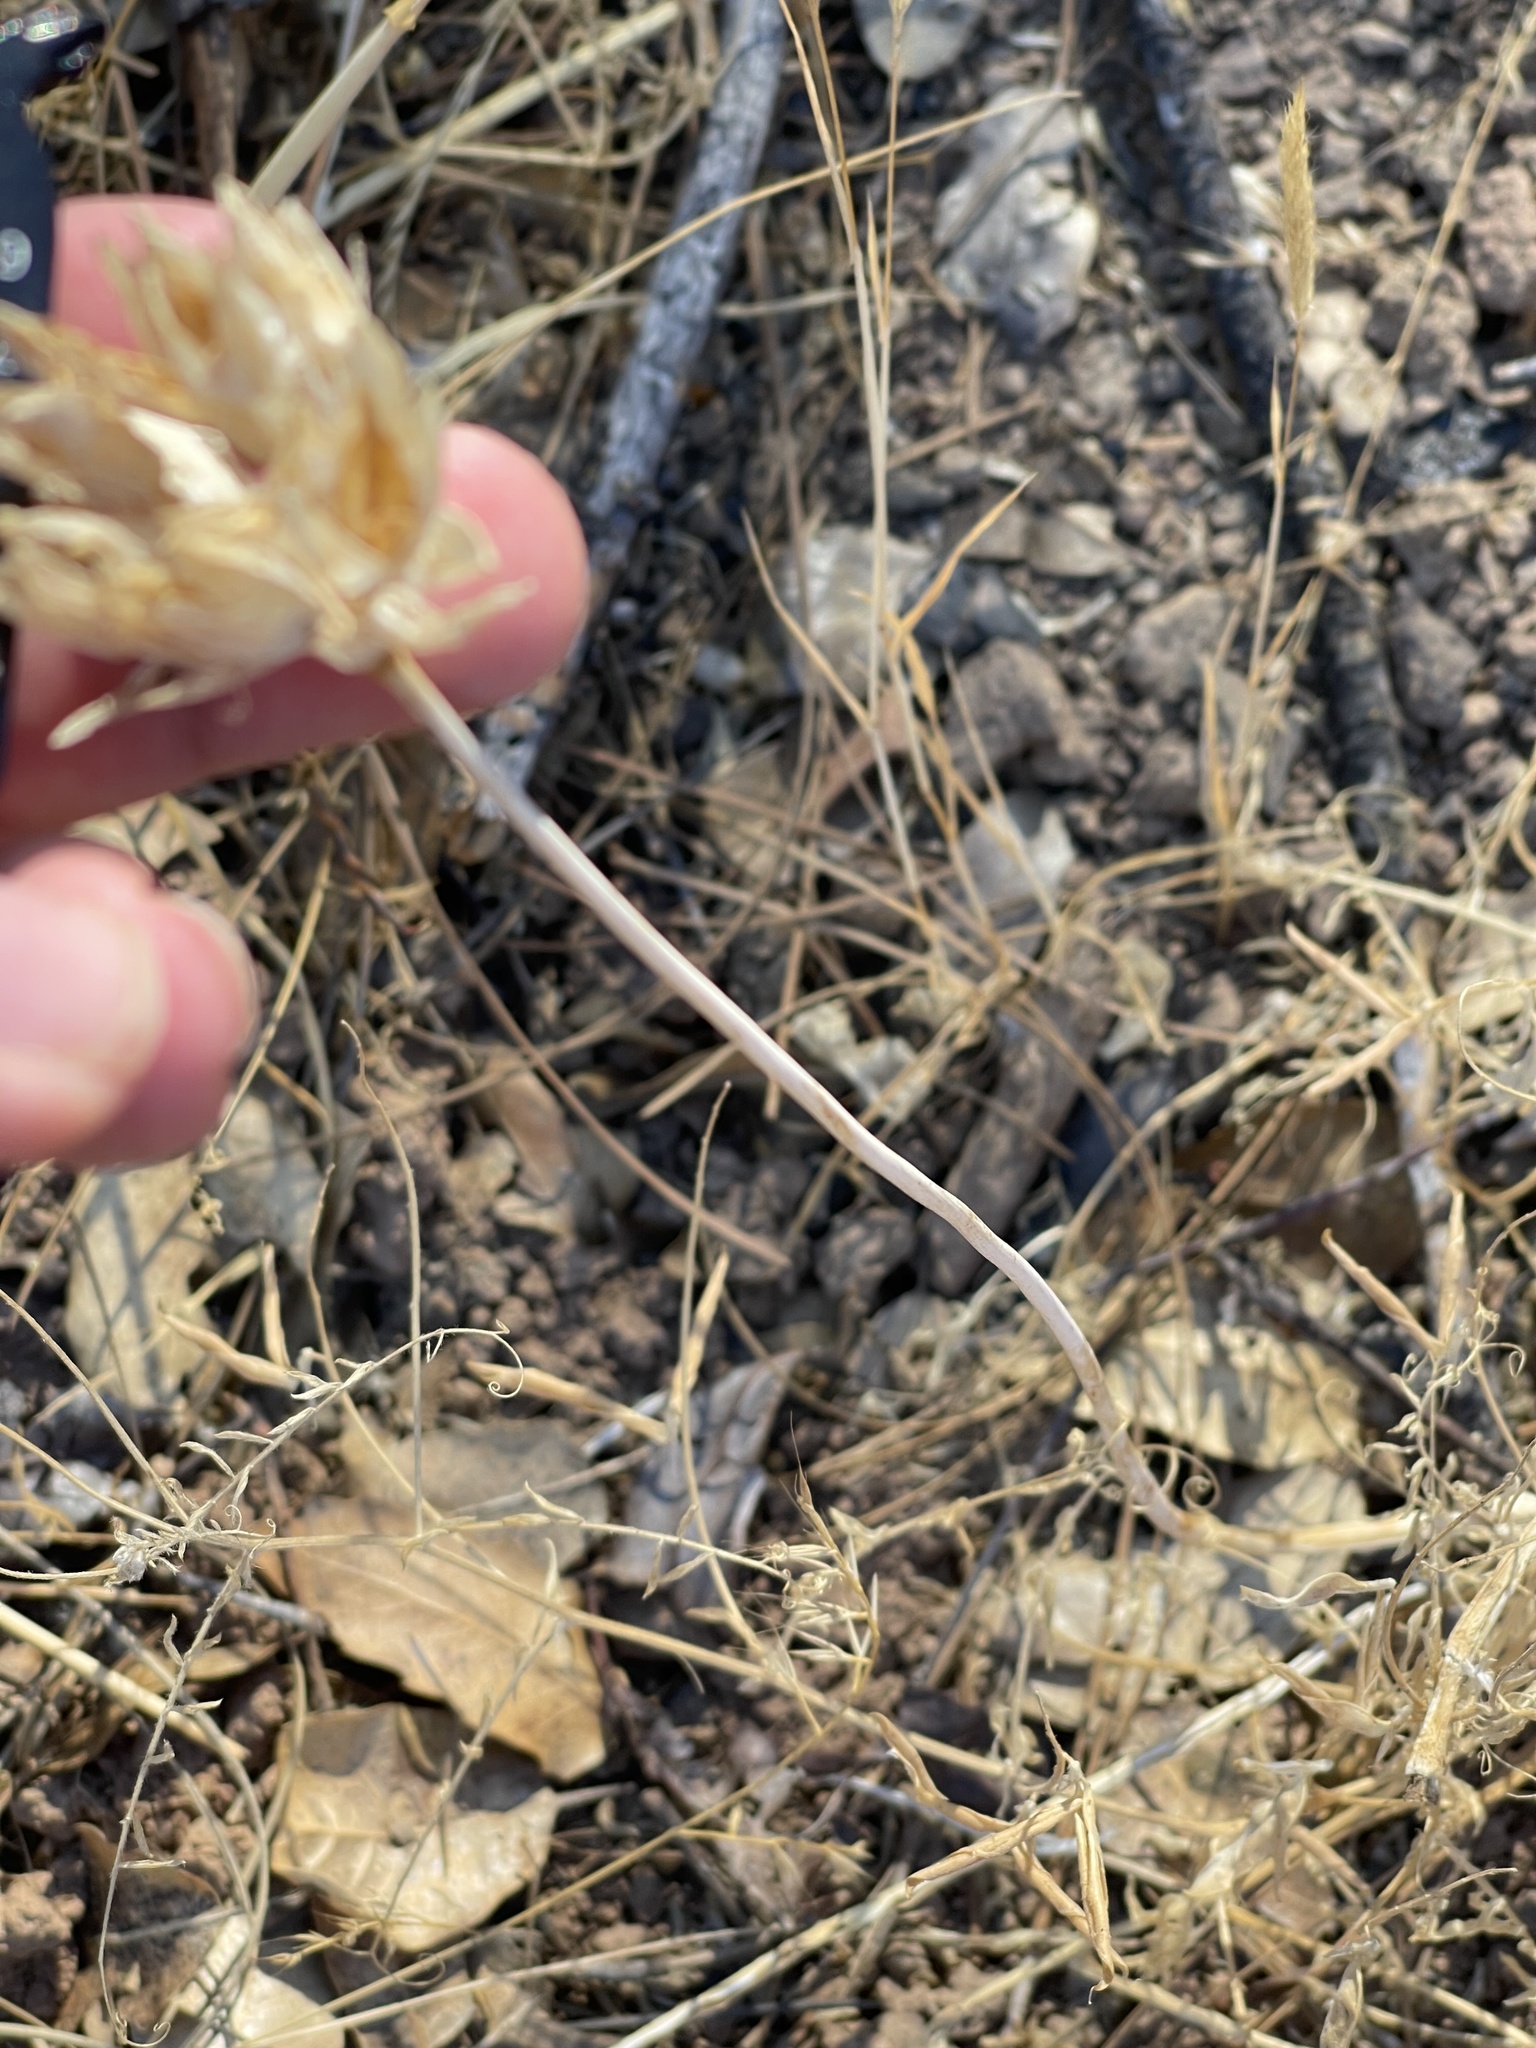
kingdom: Plantae
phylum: Tracheophyta
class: Liliopsida
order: Asparagales
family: Asparagaceae
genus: Dipterostemon
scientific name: Dipterostemon capitatus
